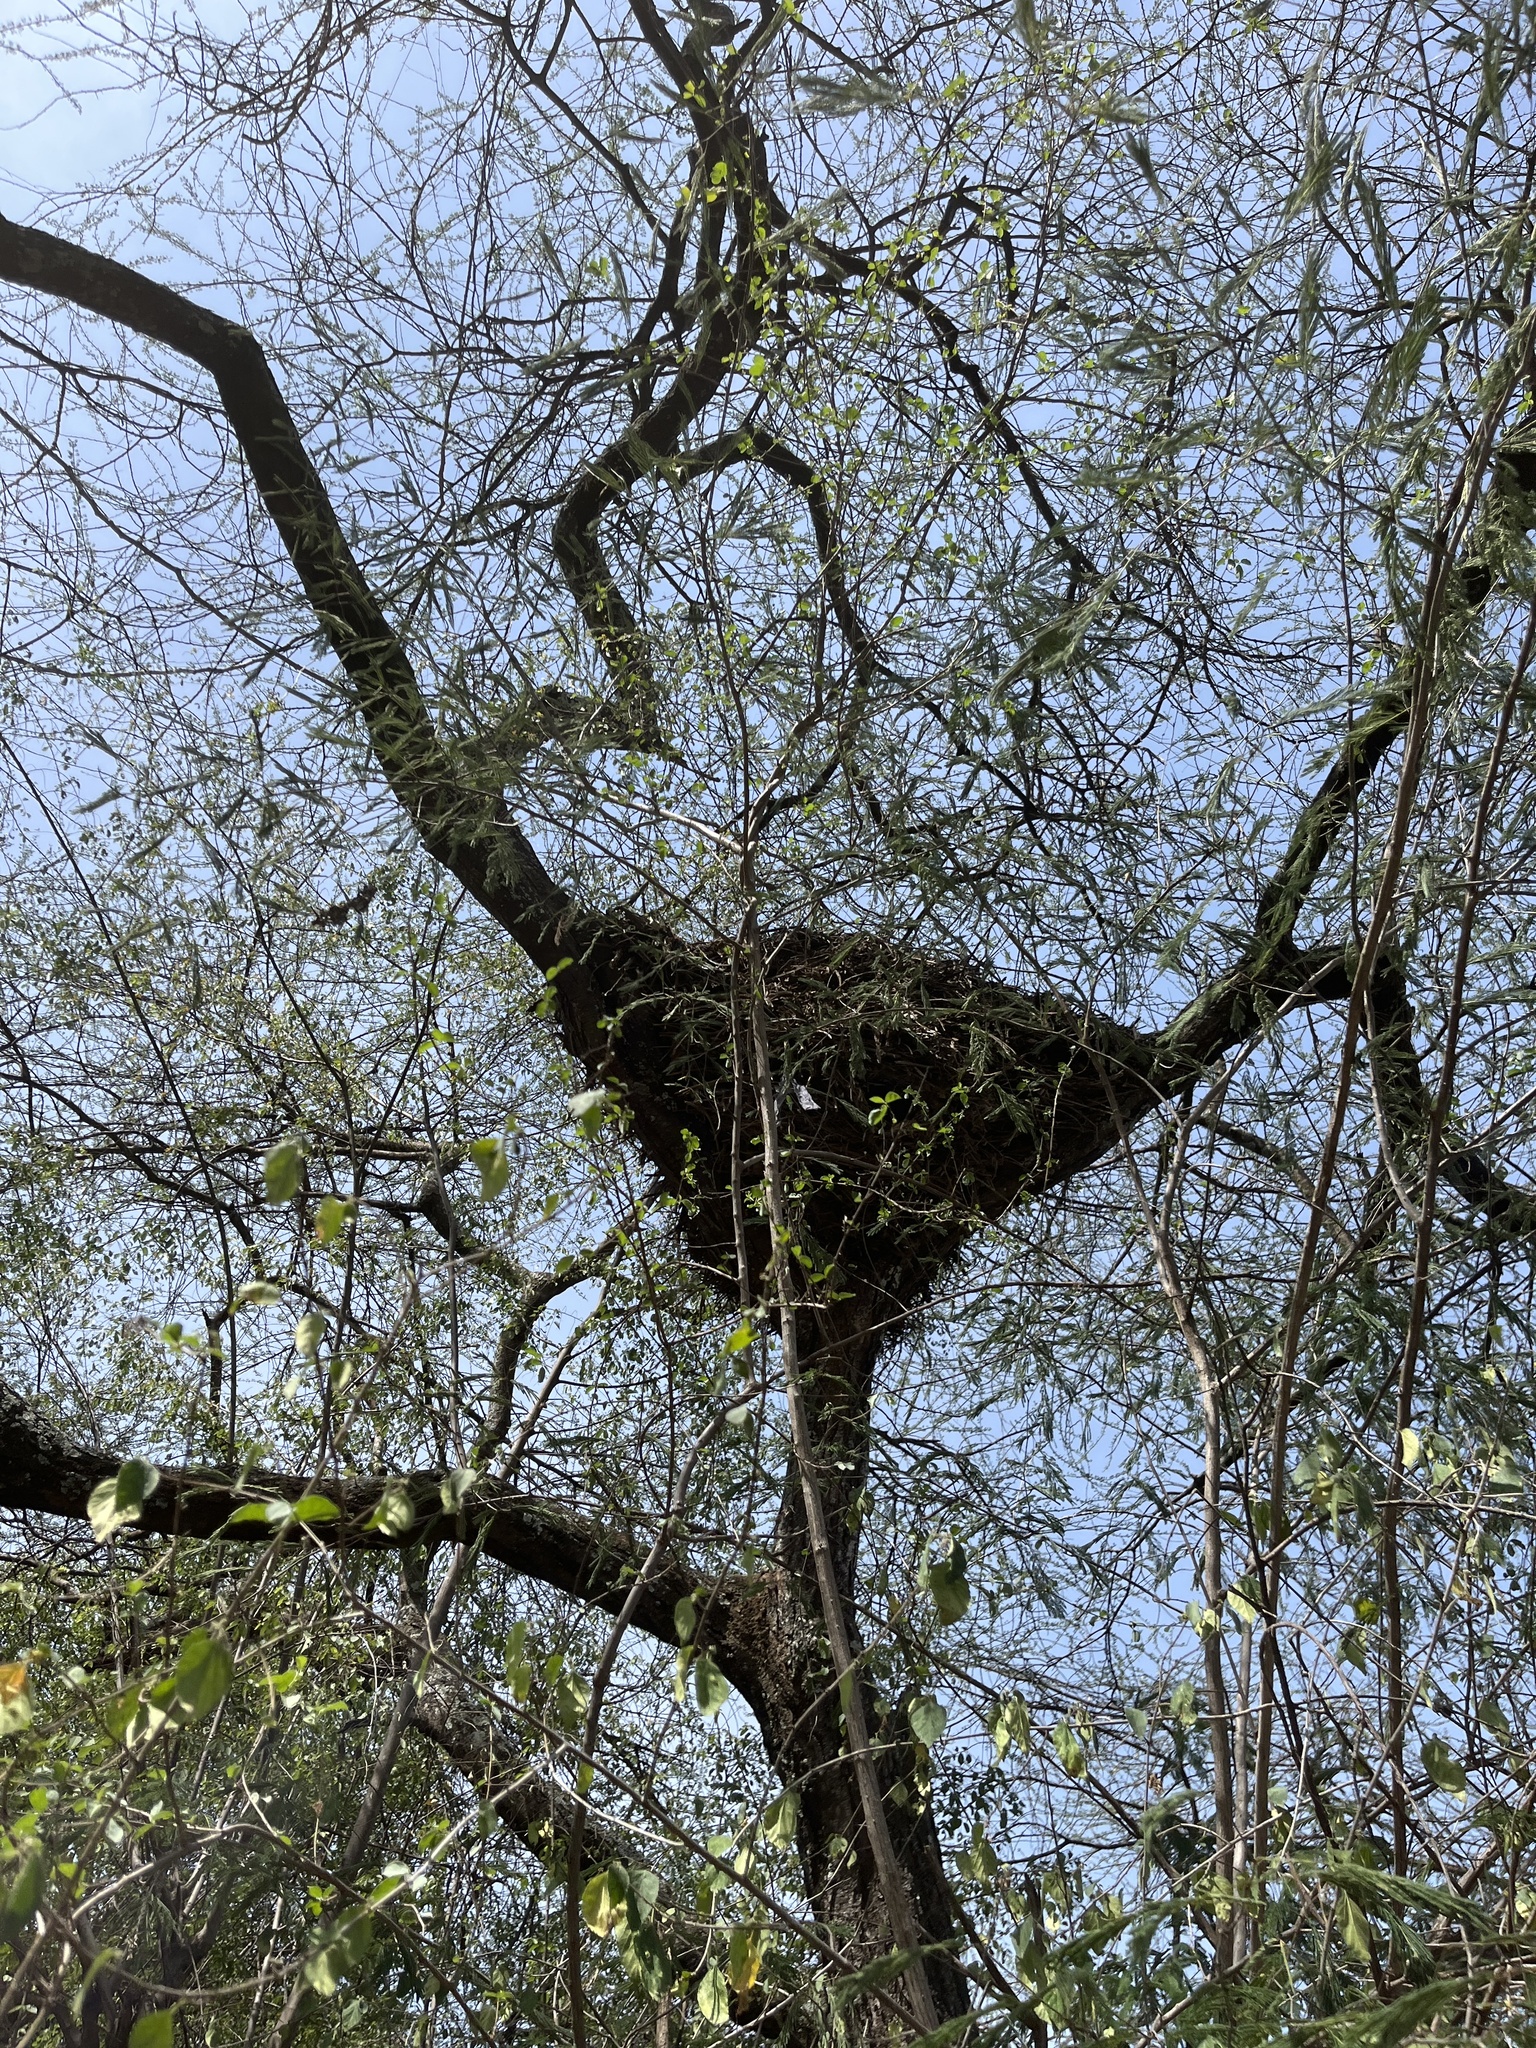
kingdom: Animalia
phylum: Chordata
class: Aves
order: Pelecaniformes
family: Scopidae
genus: Scopus
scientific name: Scopus umbretta
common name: Hamerkop
